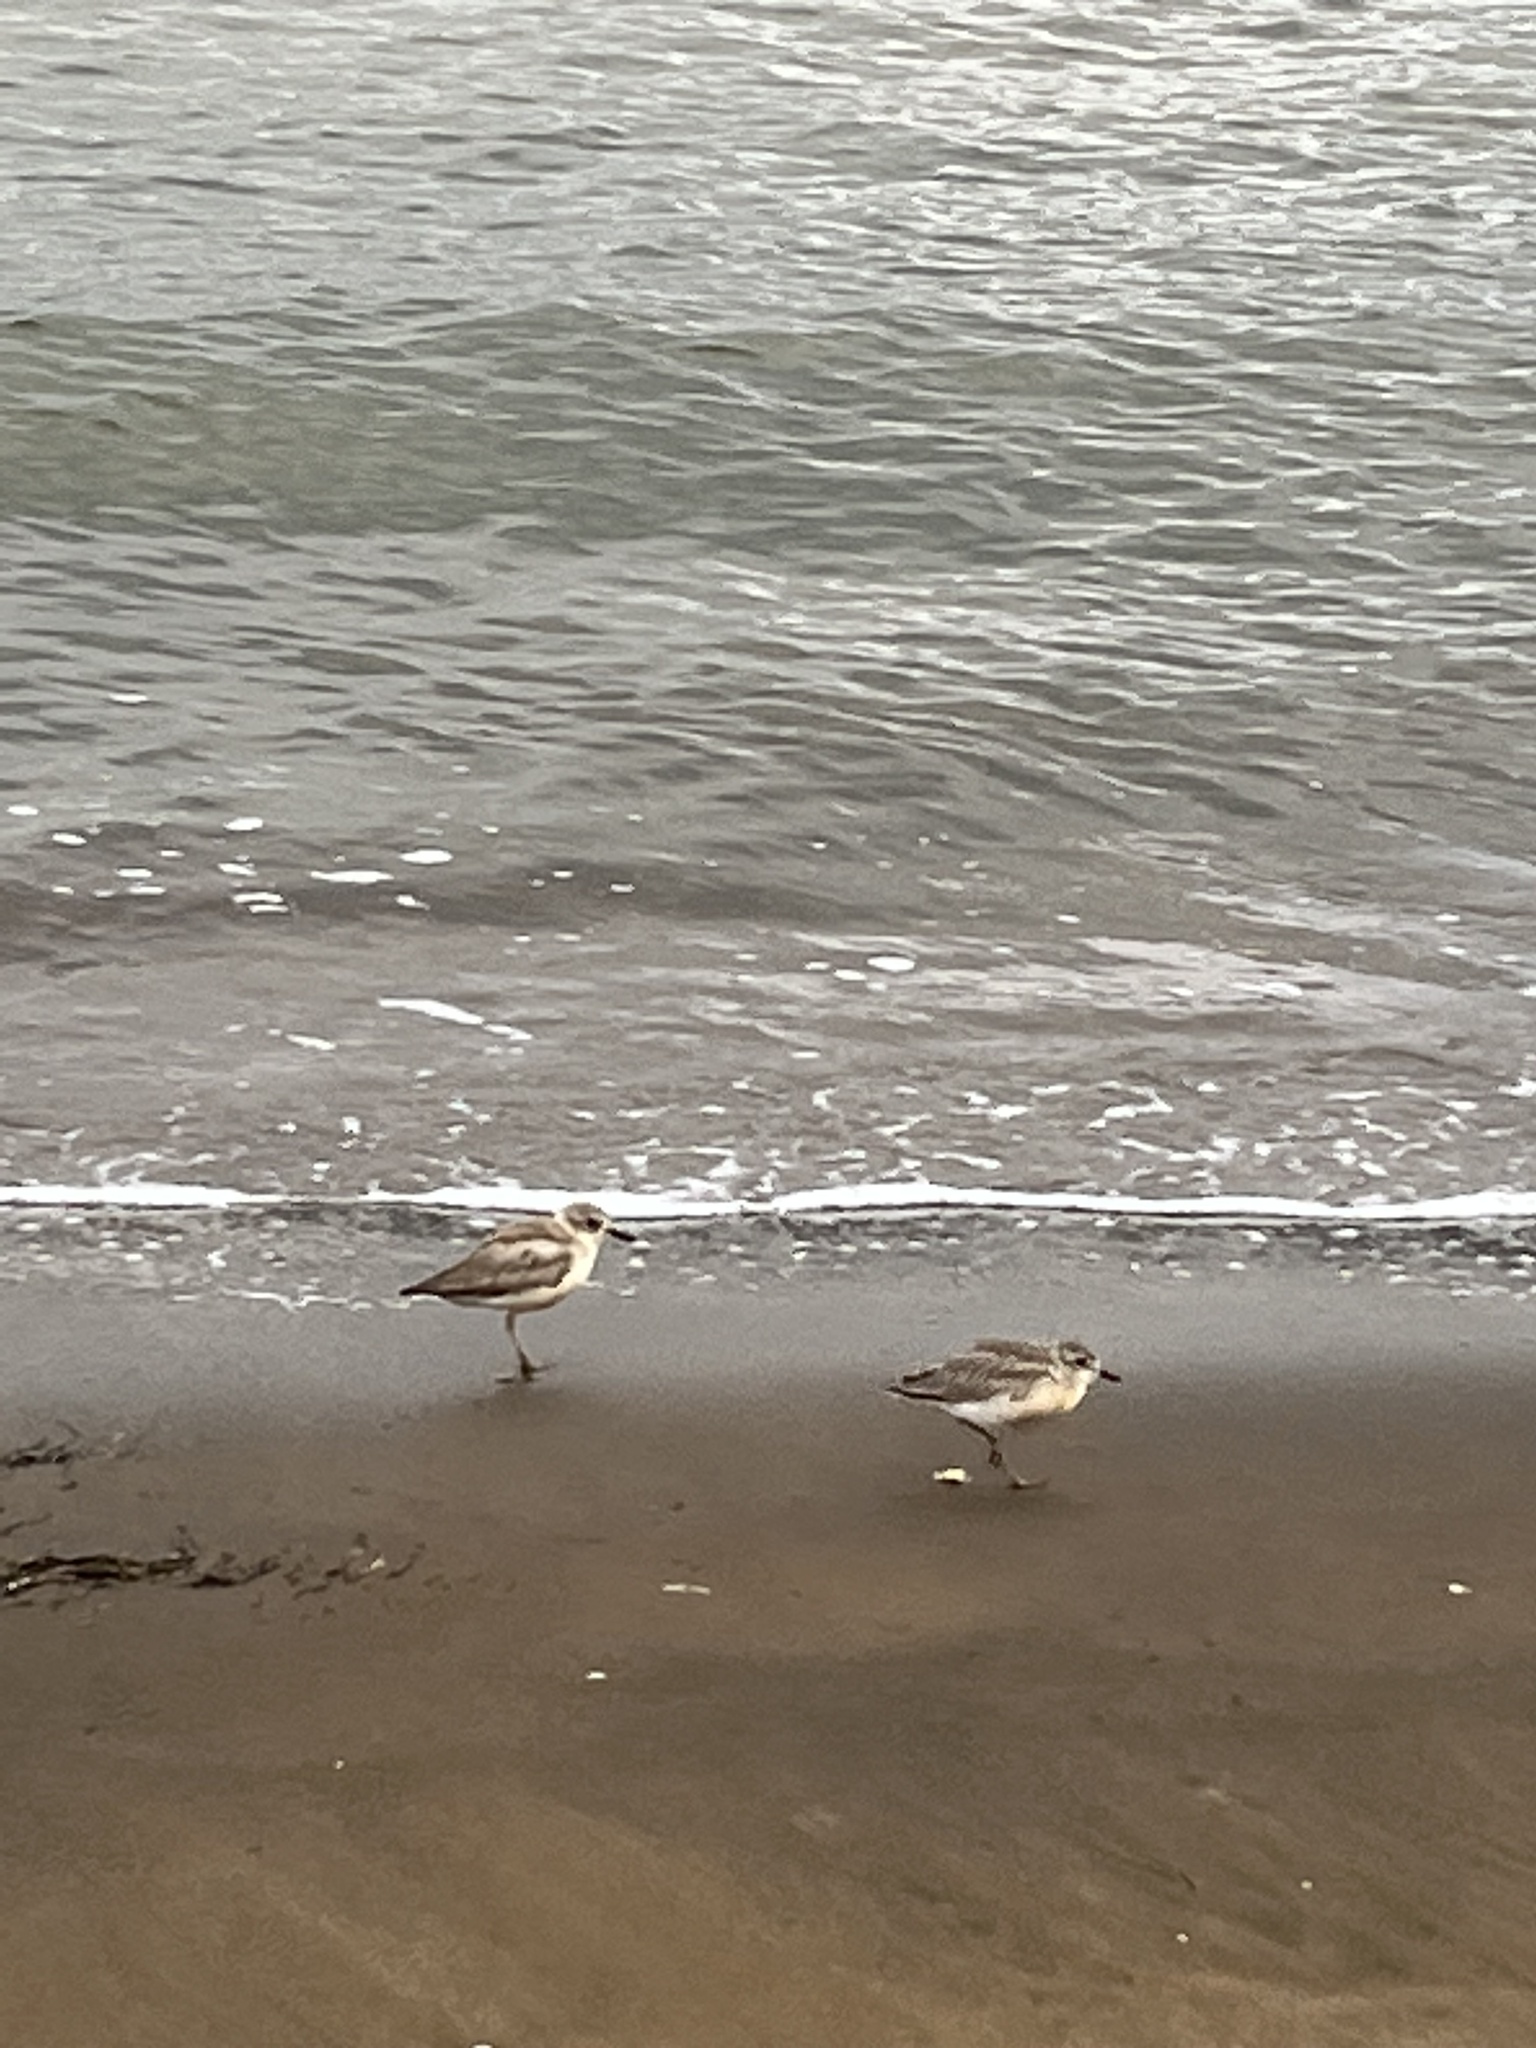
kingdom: Animalia
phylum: Chordata
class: Aves
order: Charadriiformes
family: Charadriidae
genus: Anarhynchus
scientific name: Anarhynchus
